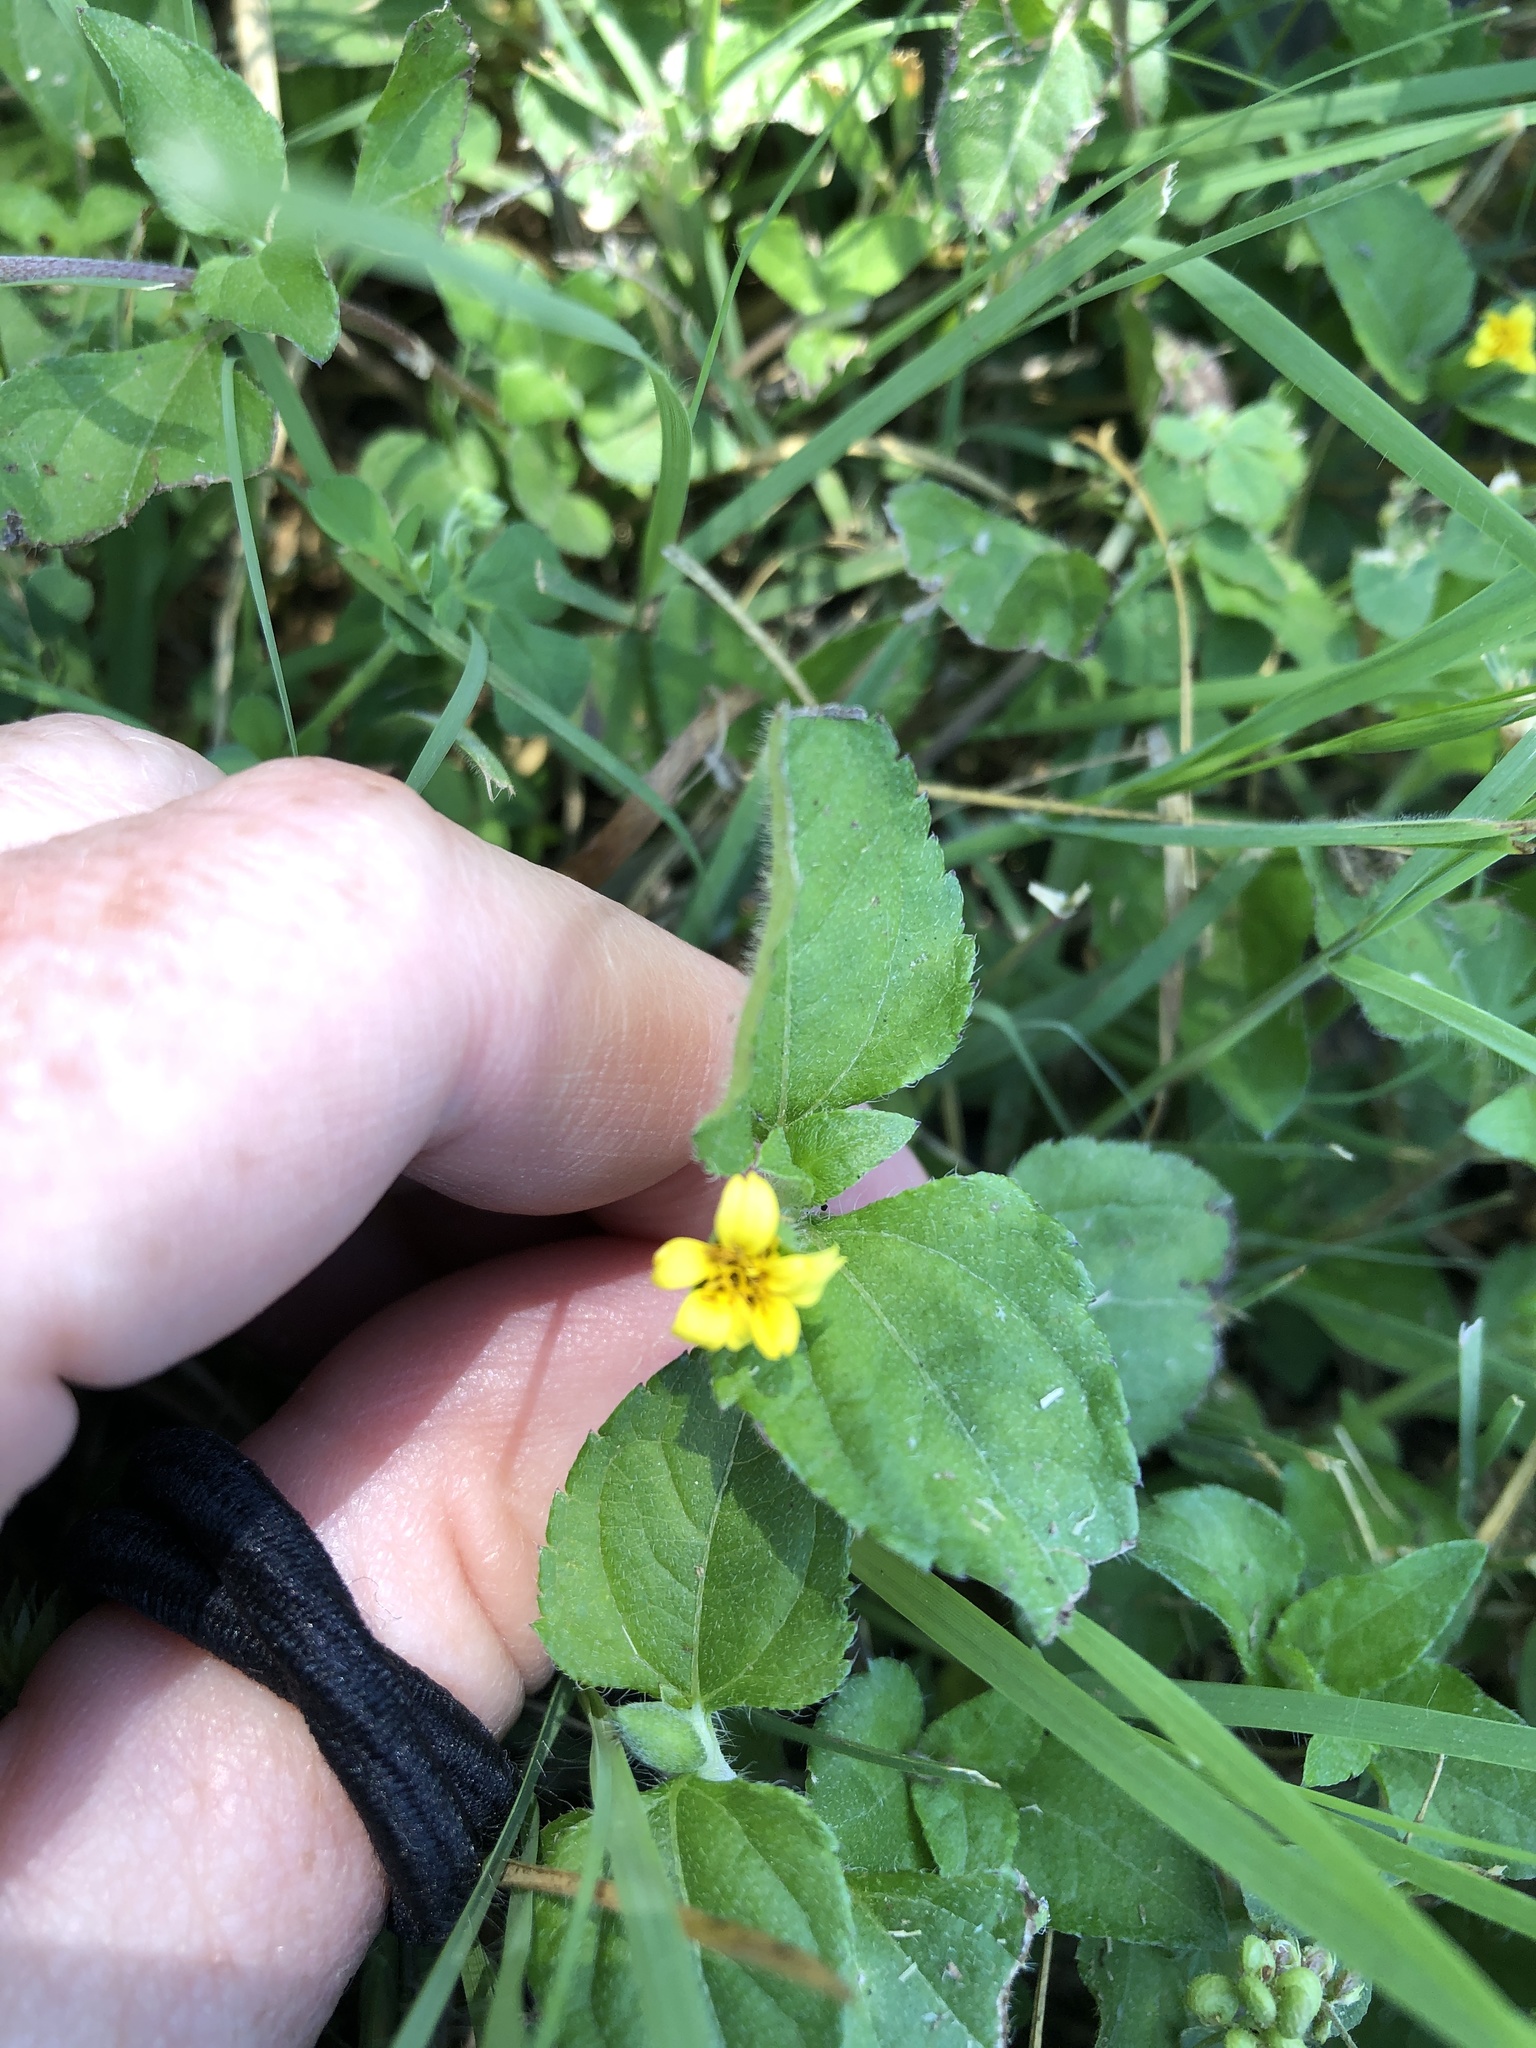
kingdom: Plantae
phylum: Tracheophyta
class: Magnoliopsida
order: Asterales
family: Asteraceae
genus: Calyptocarpus
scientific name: Calyptocarpus vialis
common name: Straggler daisy
